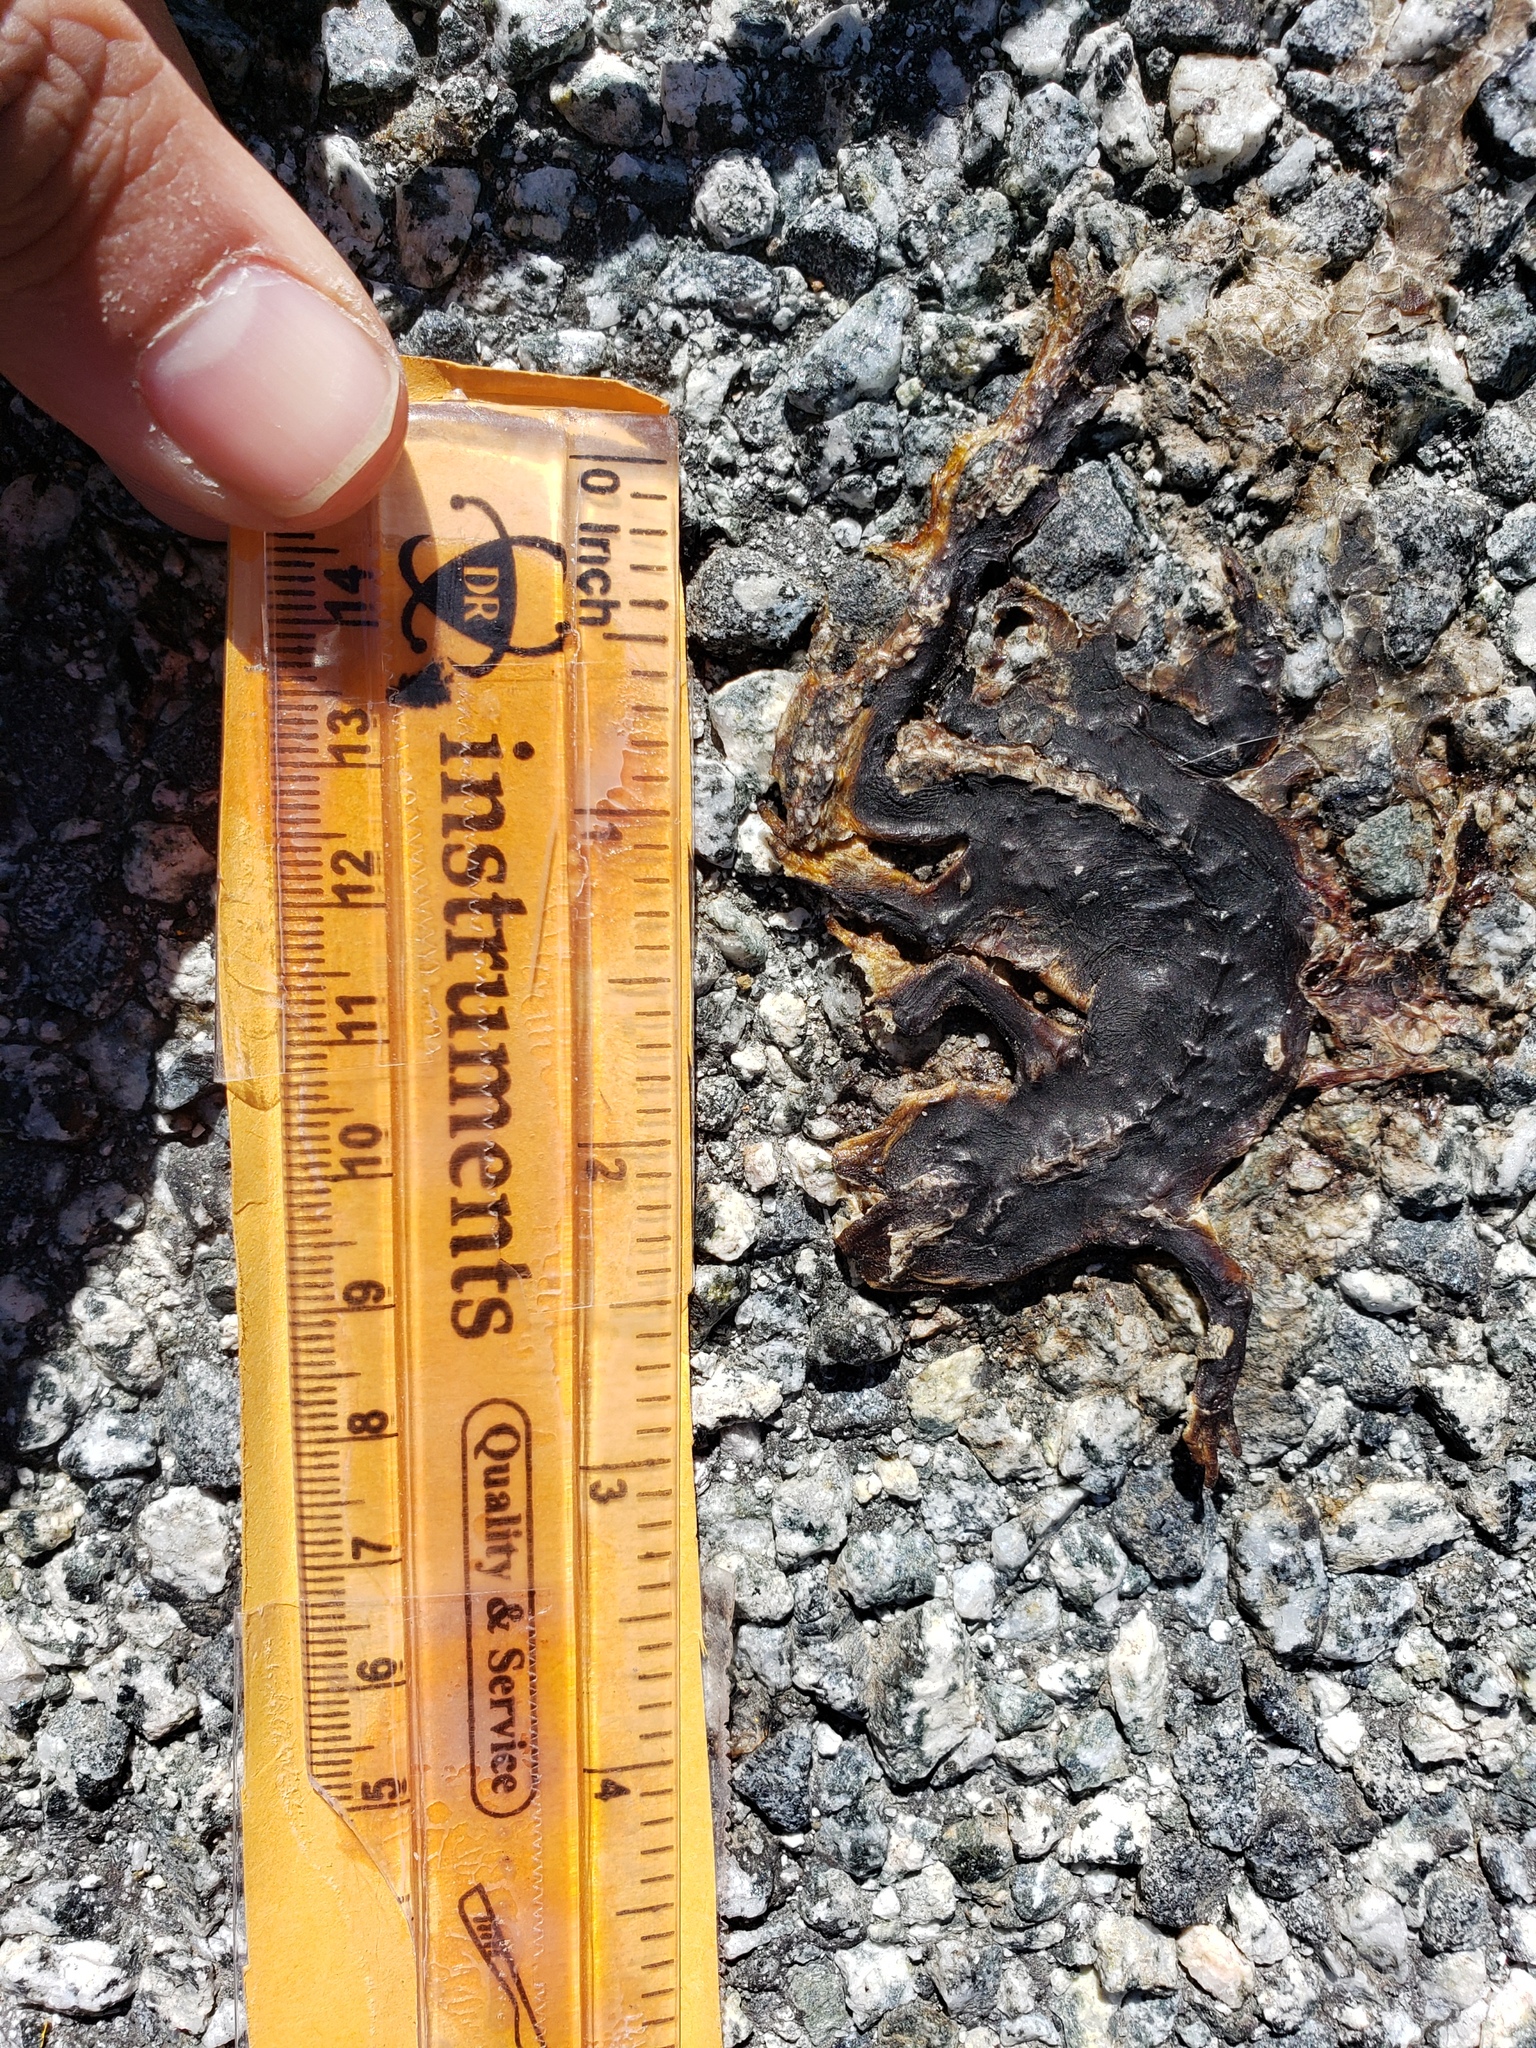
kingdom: Animalia
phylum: Chordata
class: Amphibia
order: Caudata
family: Salamandridae
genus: Taricha
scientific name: Taricha
